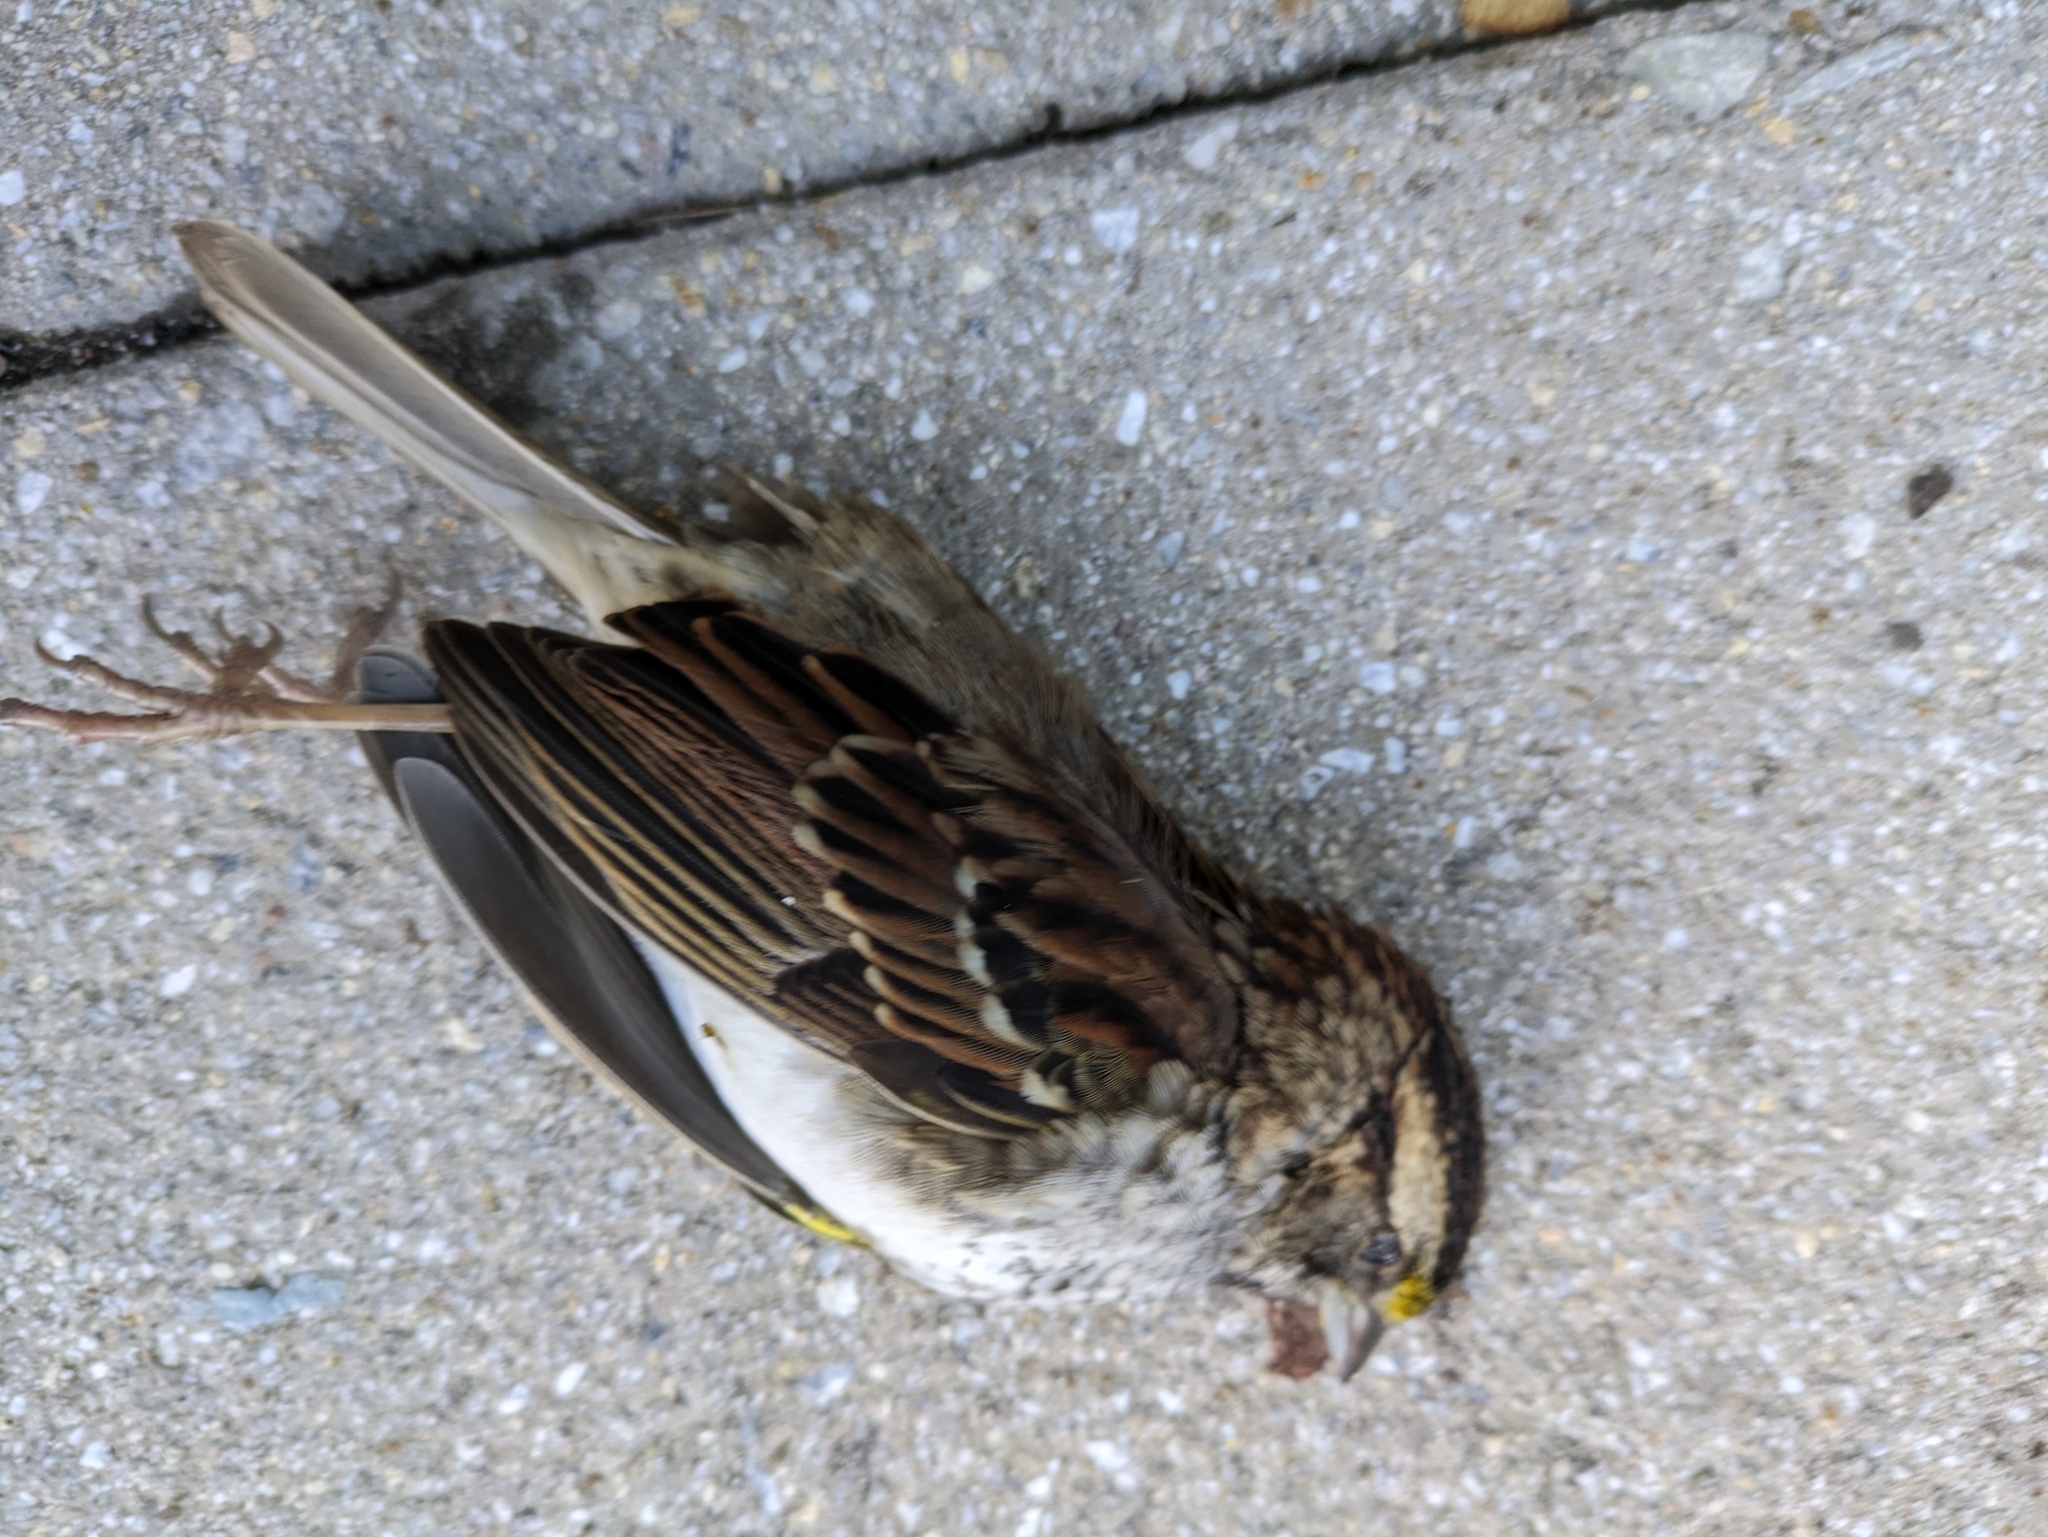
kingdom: Animalia
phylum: Chordata
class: Aves
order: Passeriformes
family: Passerellidae
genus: Zonotrichia
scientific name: Zonotrichia albicollis
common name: White-throated sparrow
